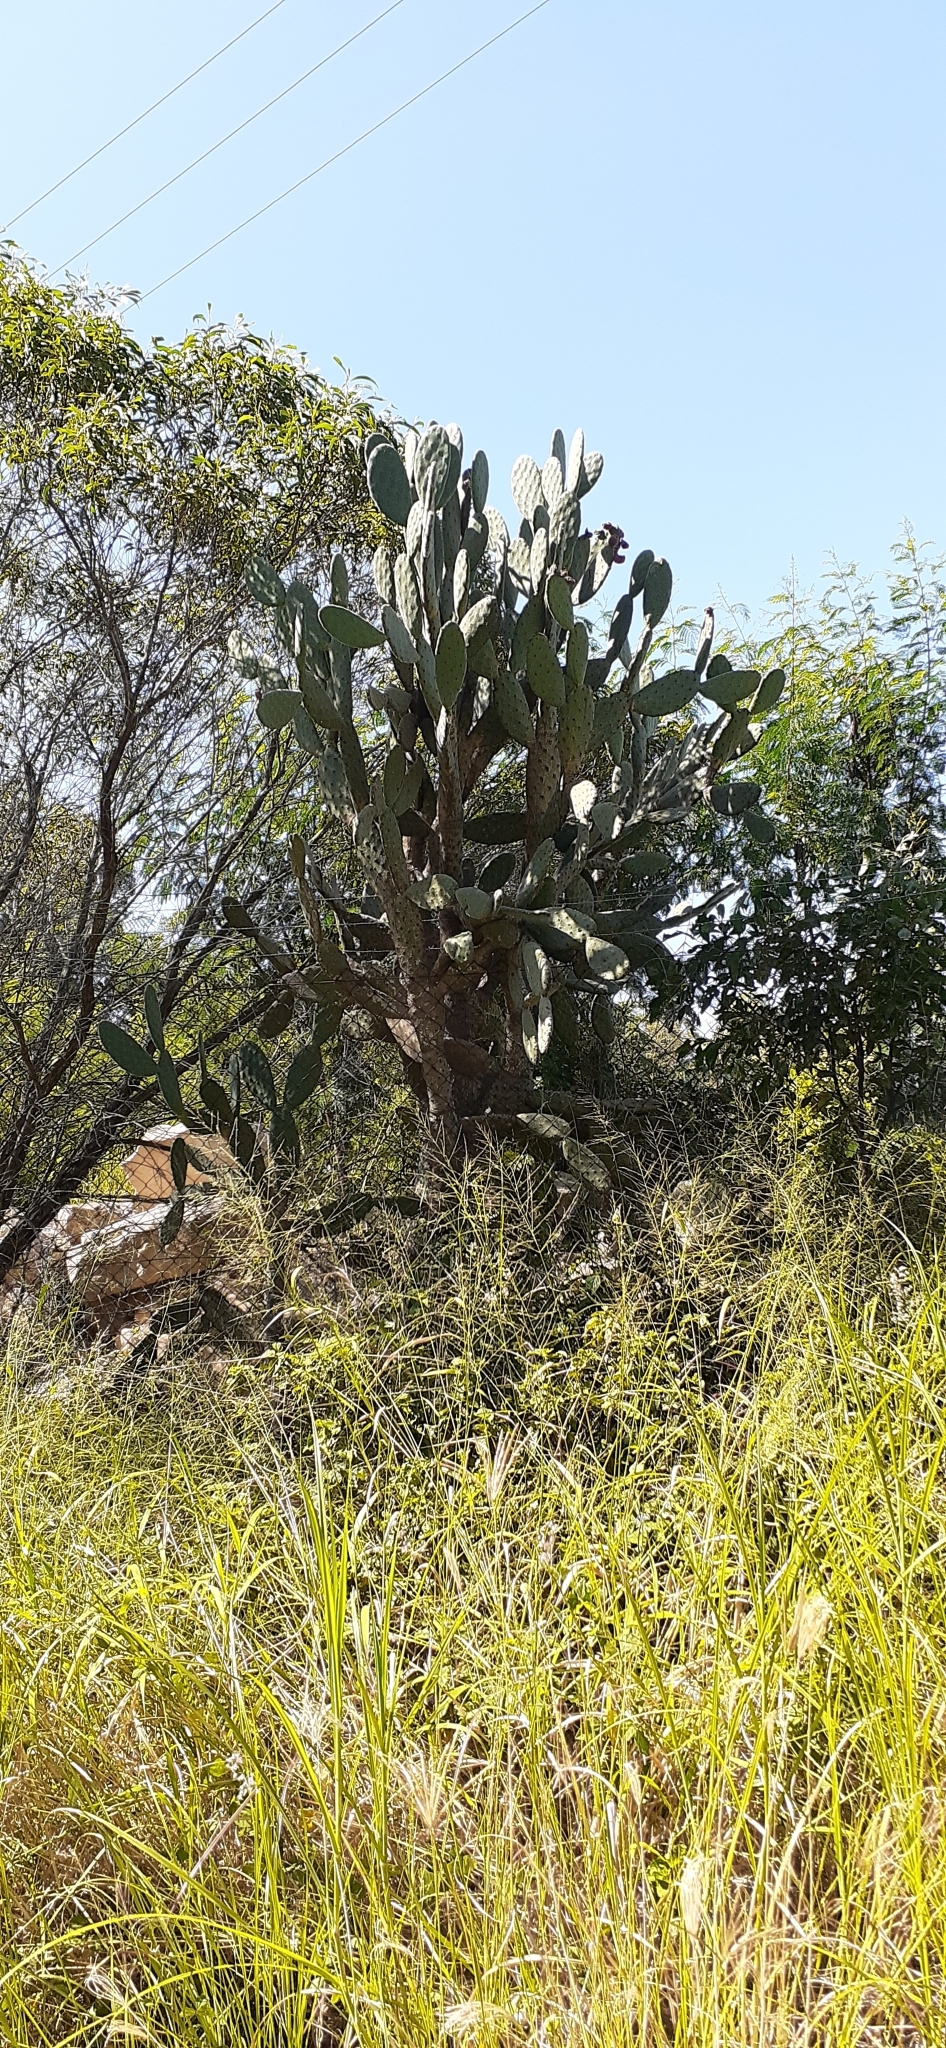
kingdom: Plantae
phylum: Tracheophyta
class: Magnoliopsida
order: Caryophyllales
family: Cactaceae
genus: Opuntia
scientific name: Opuntia tomentosa
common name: Woollyjoint pricklypear
